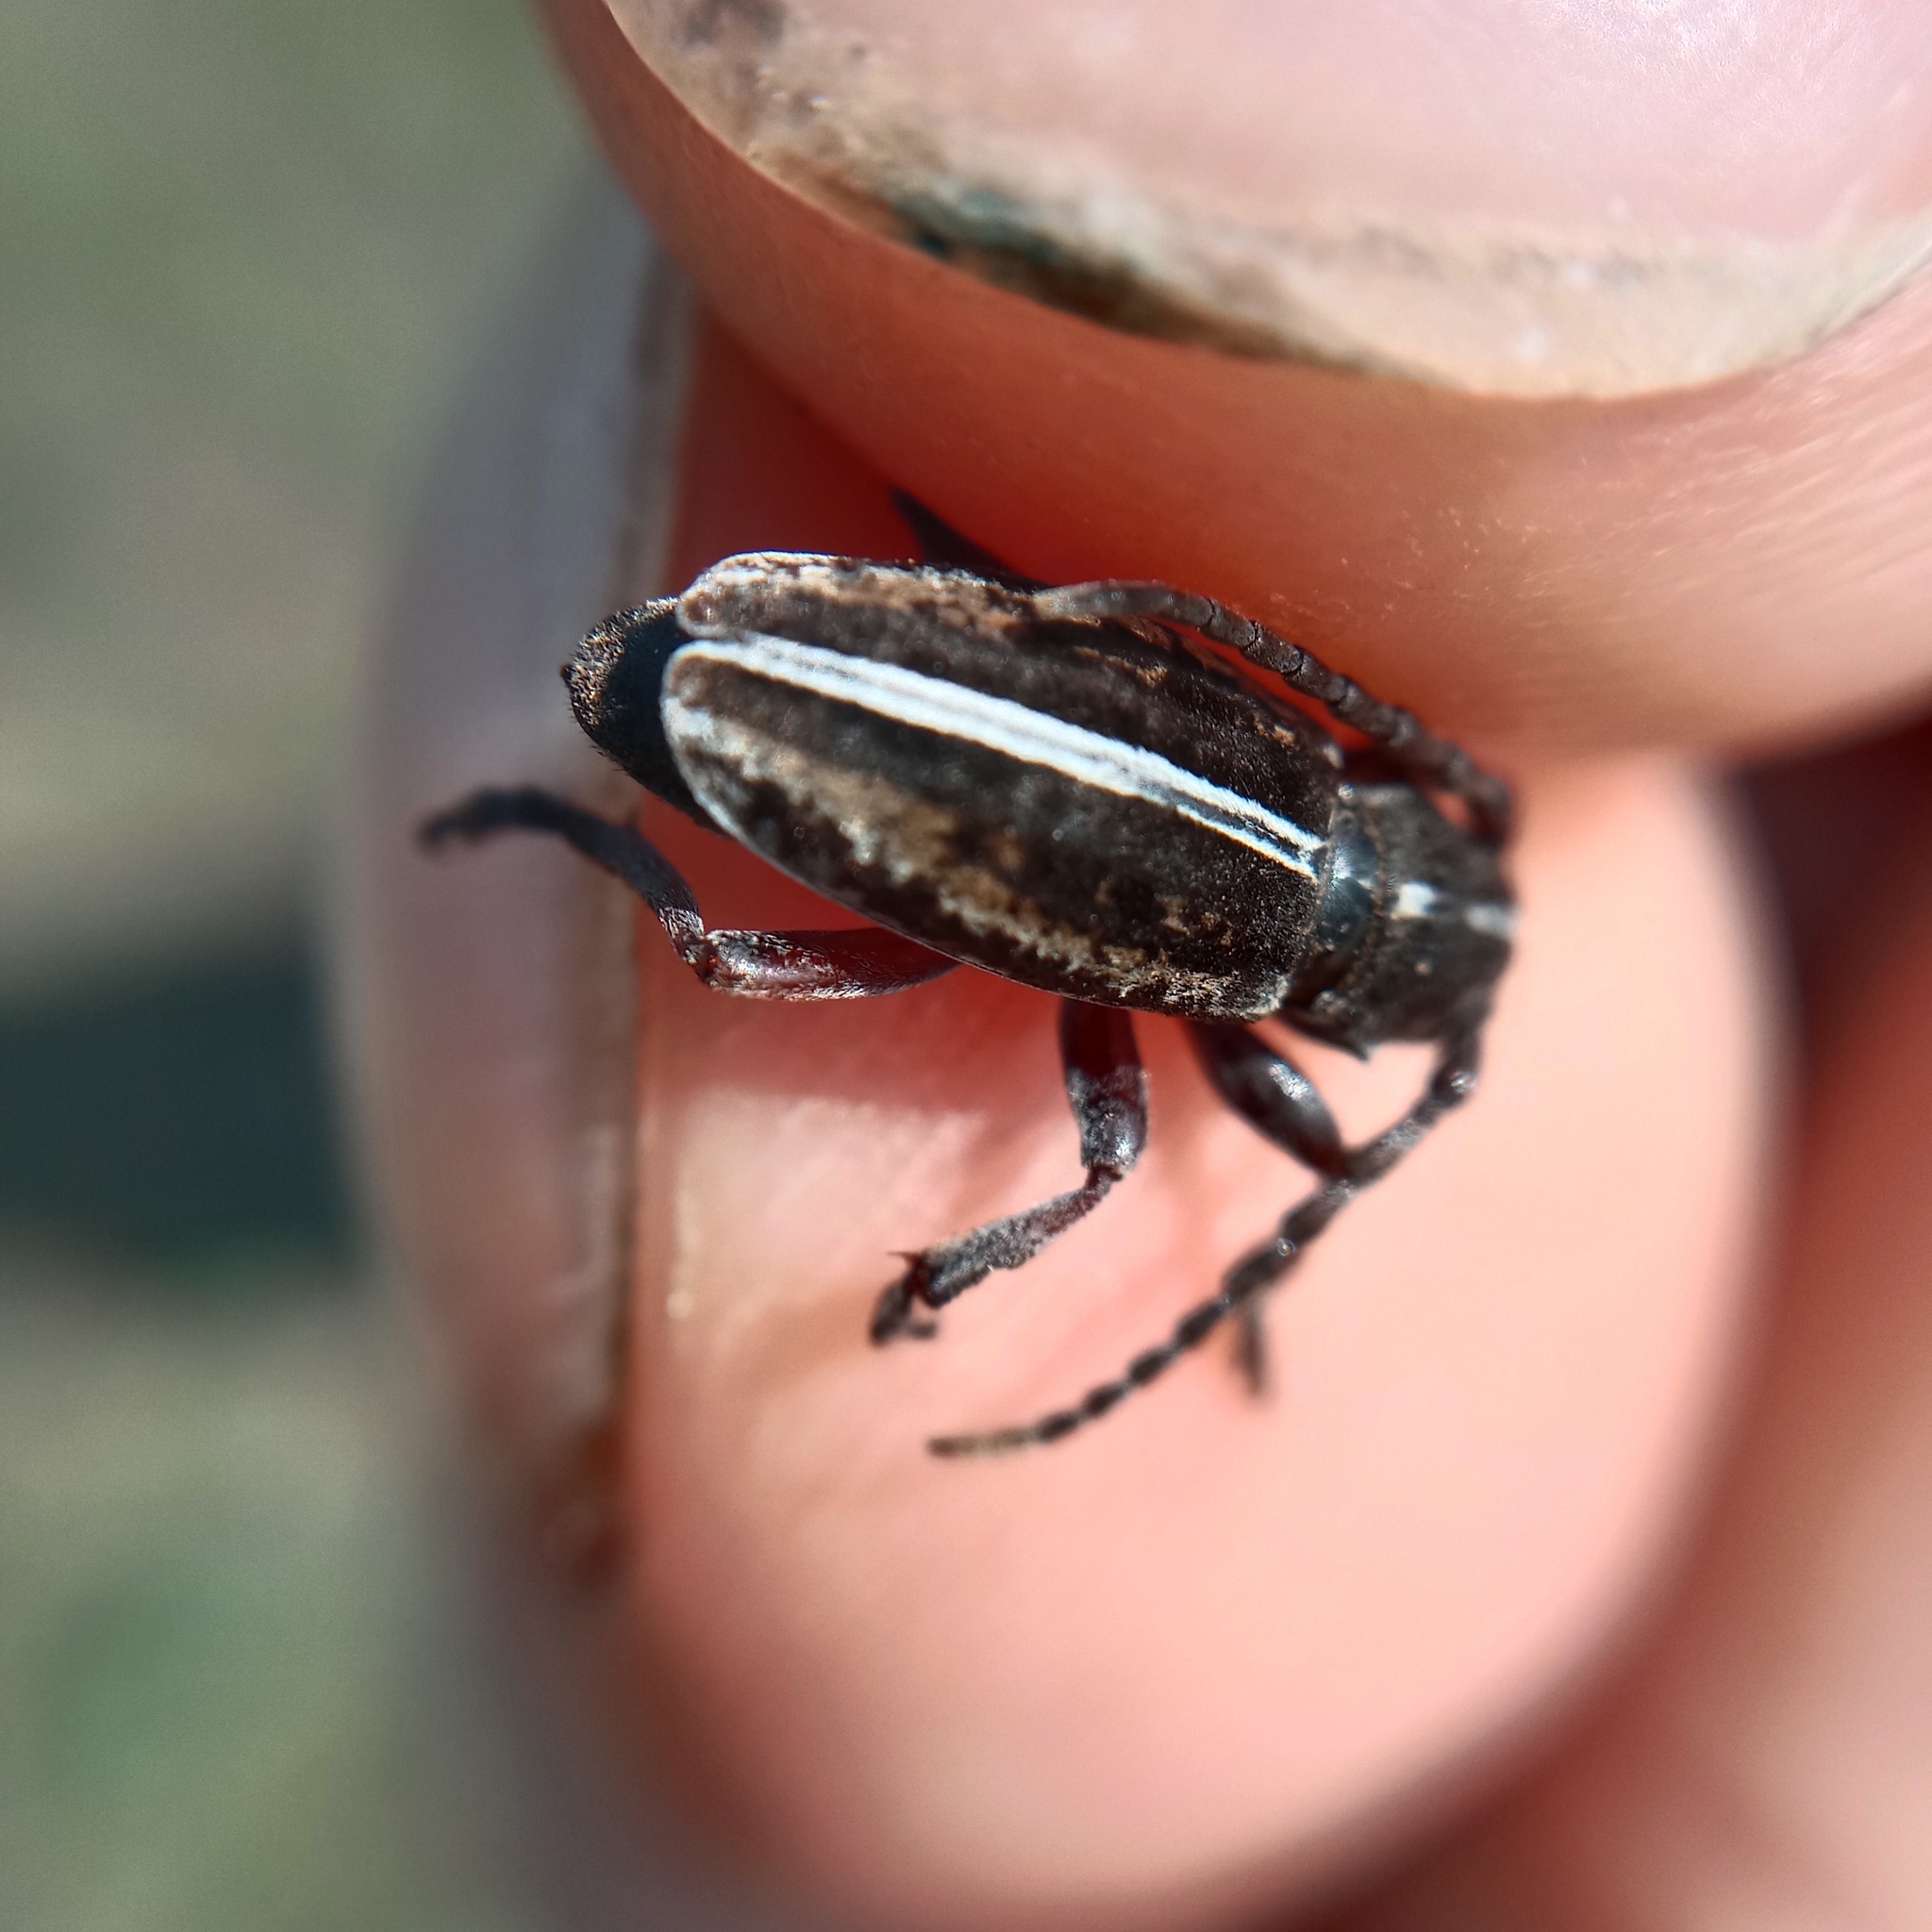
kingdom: Animalia
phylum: Arthropoda
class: Insecta
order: Coleoptera
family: Cerambycidae
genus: Dorcadion
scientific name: Dorcadion pusillum
